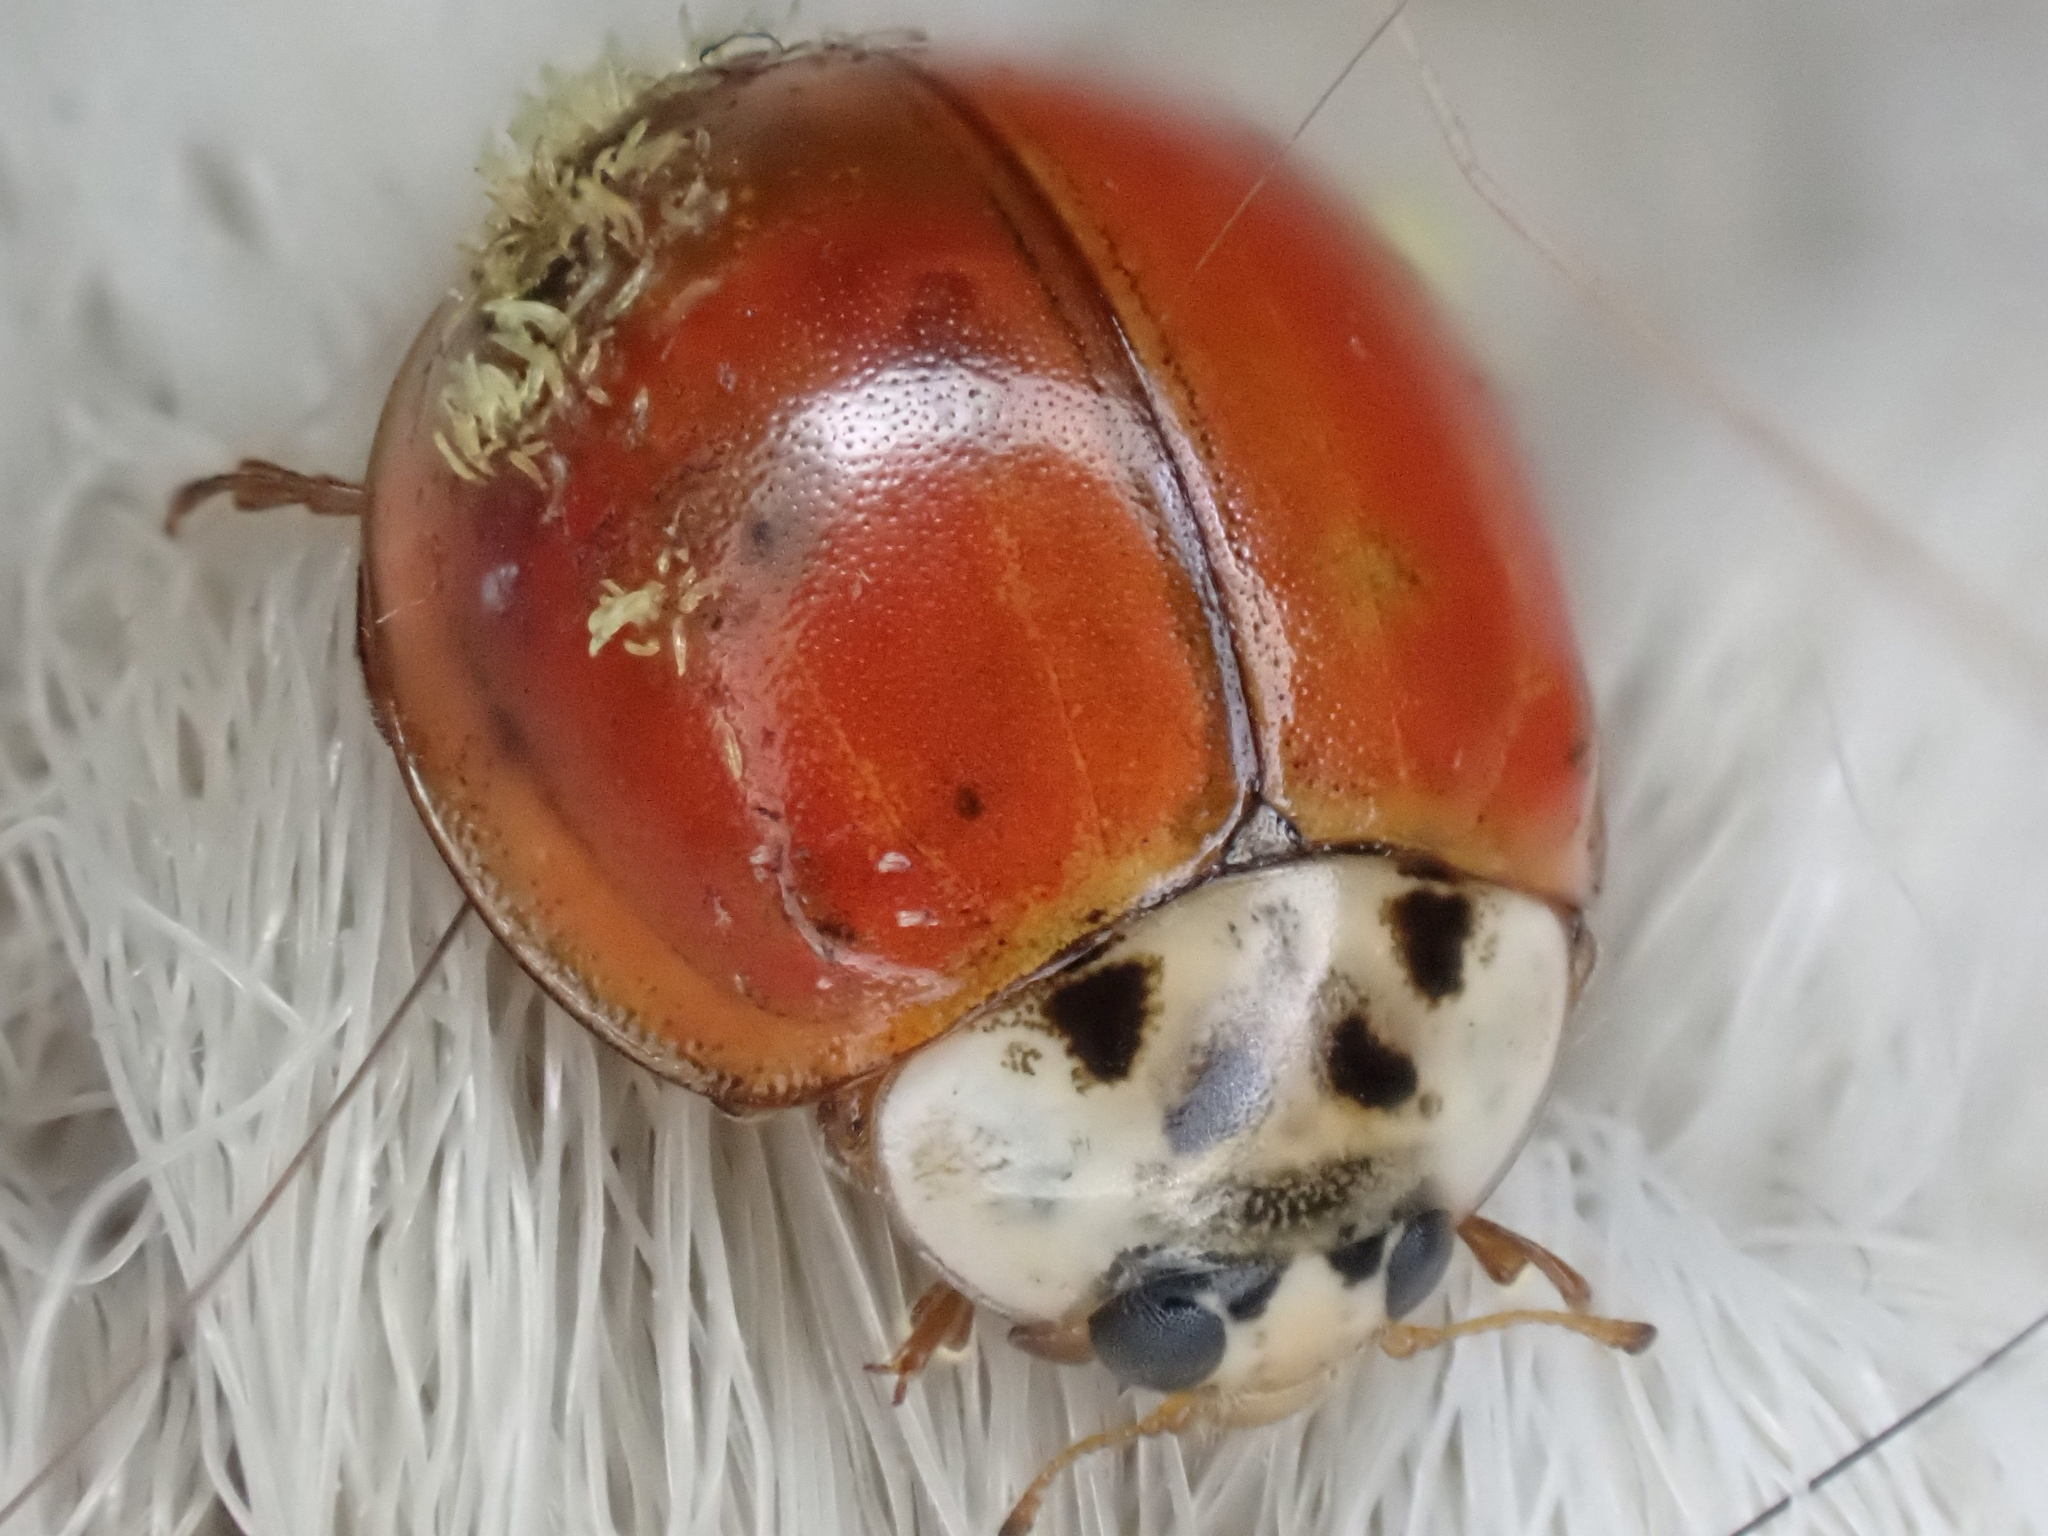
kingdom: Animalia
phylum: Arthropoda
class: Insecta
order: Coleoptera
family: Coccinellidae
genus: Harmonia
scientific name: Harmonia axyridis
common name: Harlequin ladybird
